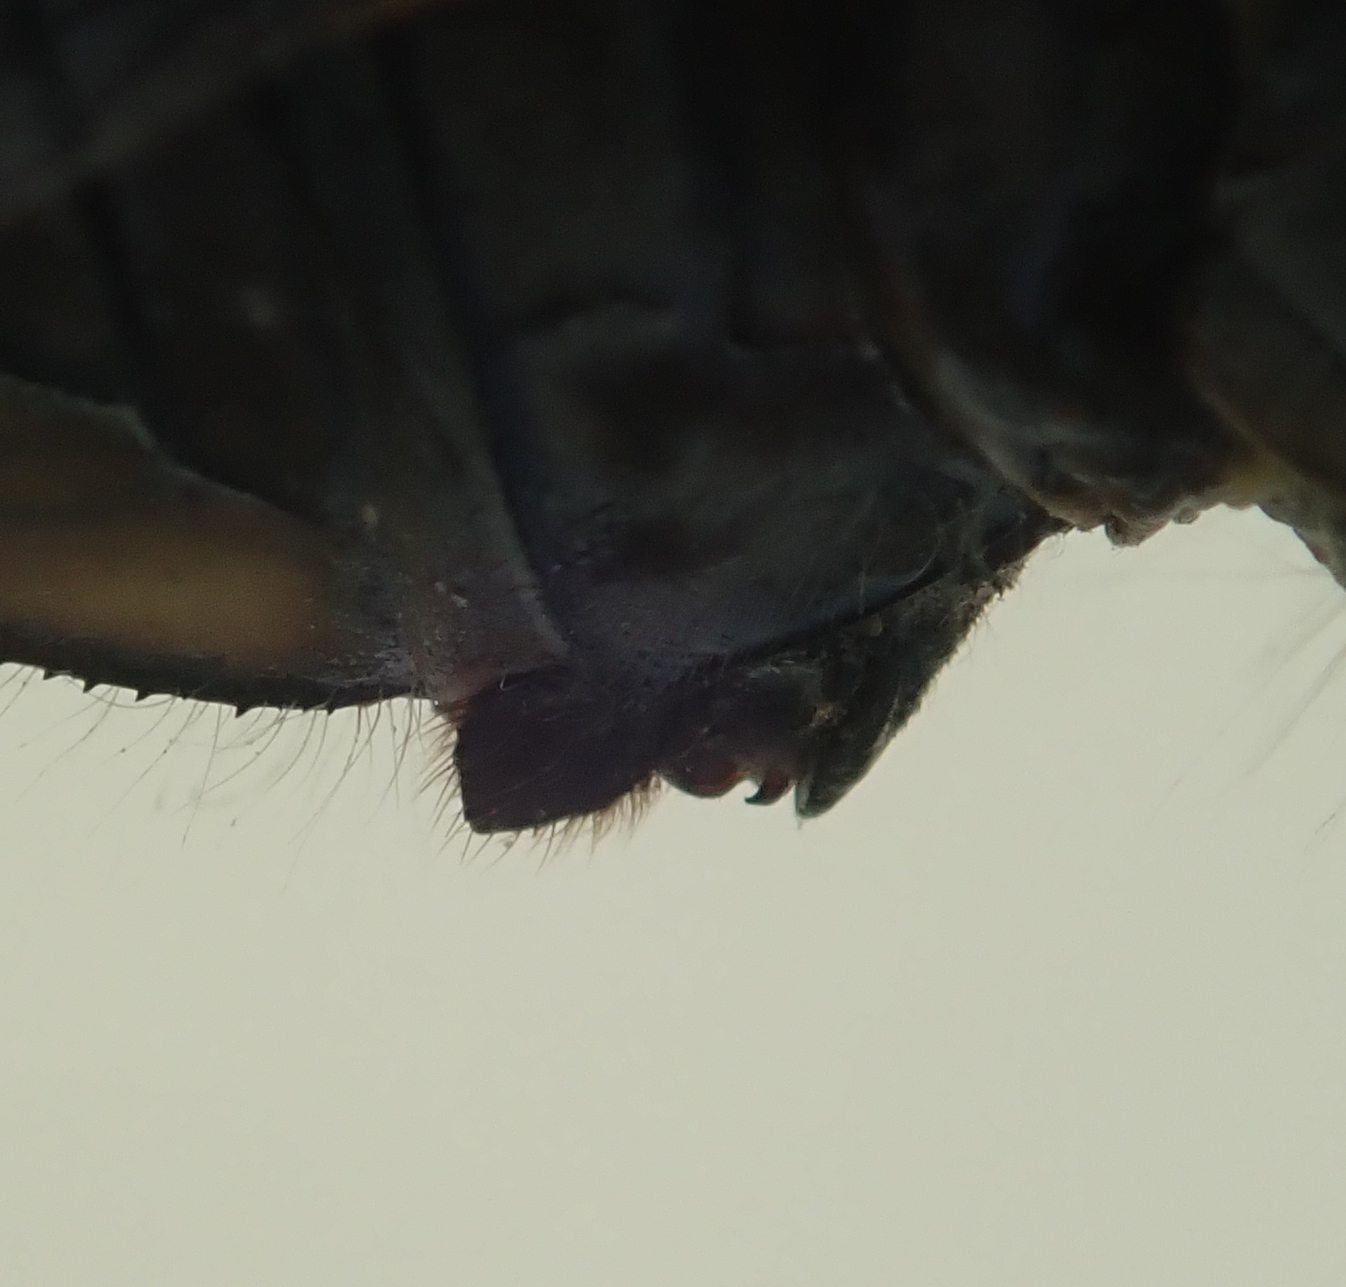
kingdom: Animalia
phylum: Arthropoda
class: Insecta
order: Odonata
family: Libellulidae
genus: Orthetrum
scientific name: Orthetrum stemmale
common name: Bold skimmer
